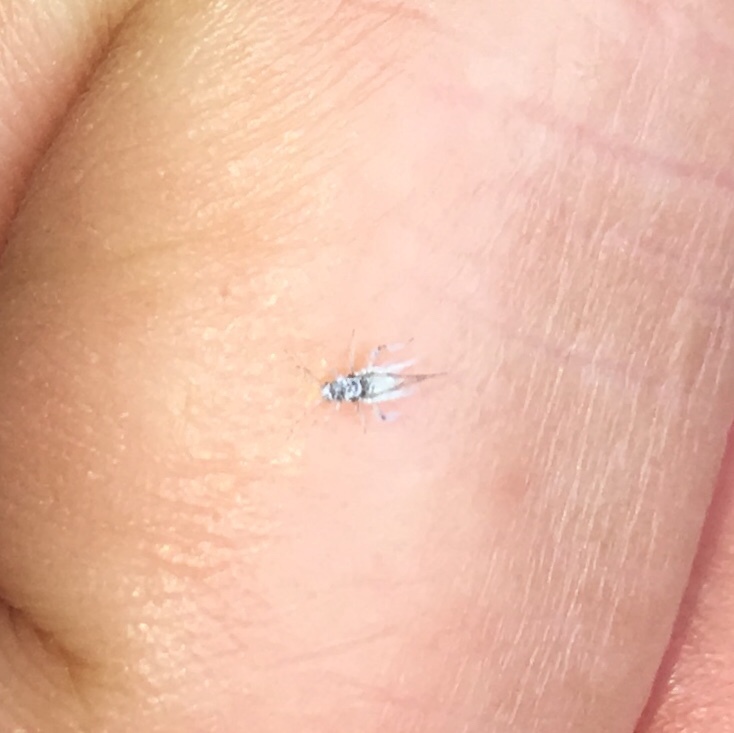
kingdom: Animalia
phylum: Arthropoda
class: Insecta
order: Hemiptera
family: Aphididae
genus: Shivaphis
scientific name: Shivaphis celti
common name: Asian wooly hackberry aphid
